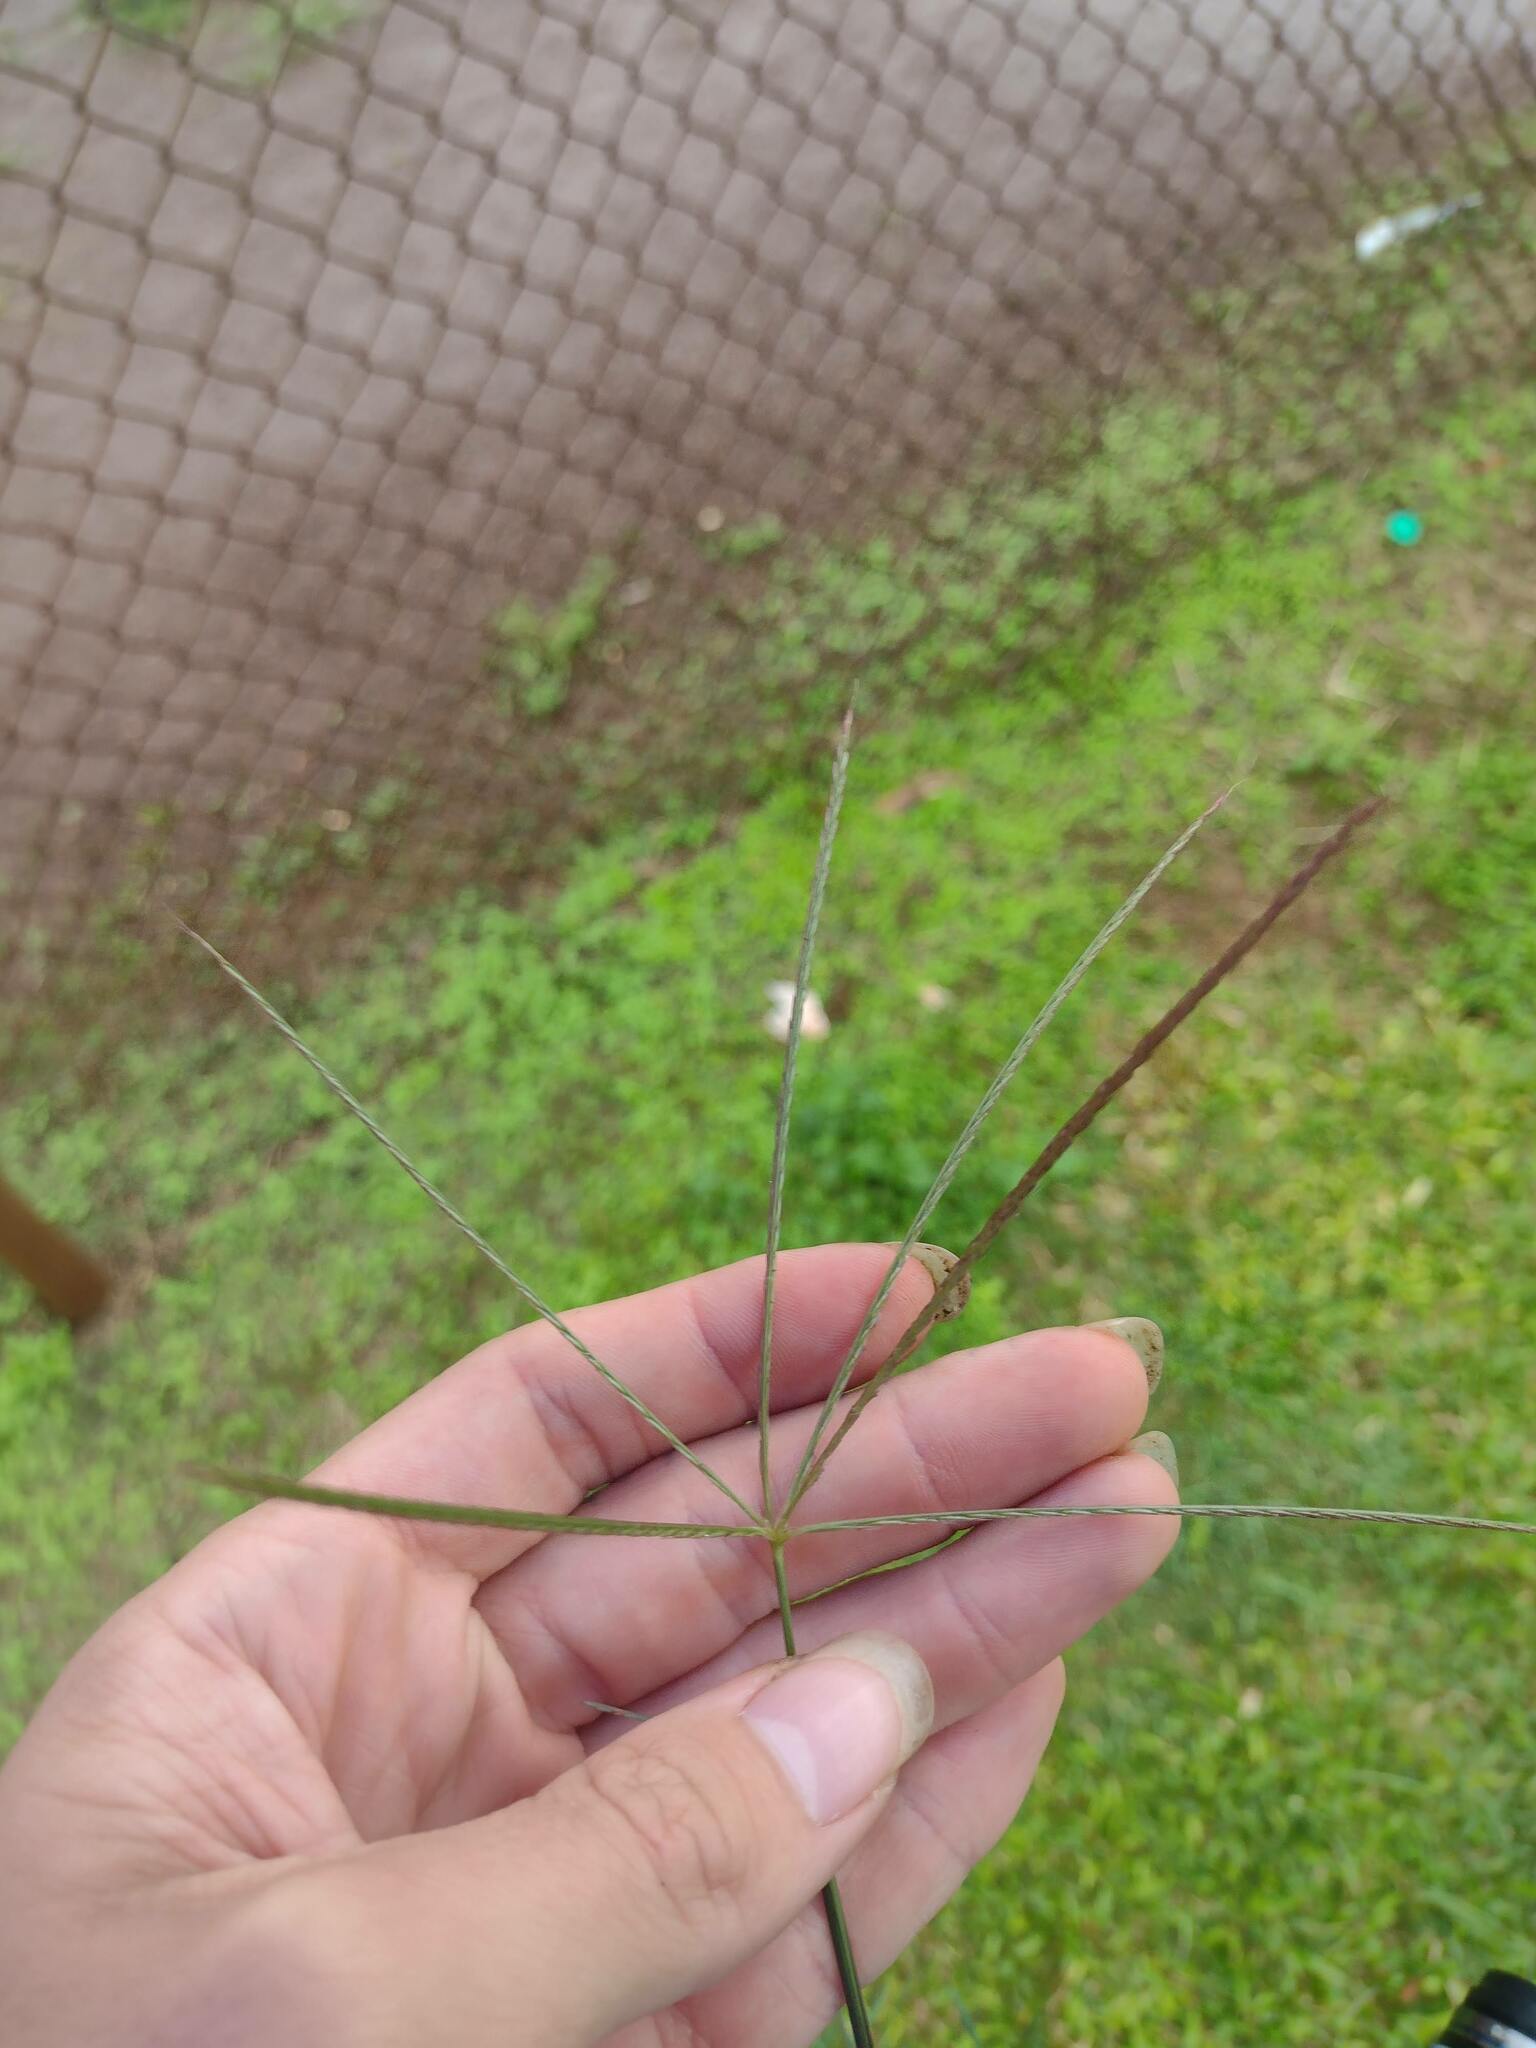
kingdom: Plantae
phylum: Tracheophyta
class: Liliopsida
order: Poales
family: Poaceae
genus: Chloris
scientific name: Chloris divaricata
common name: Spreading windmill grass
